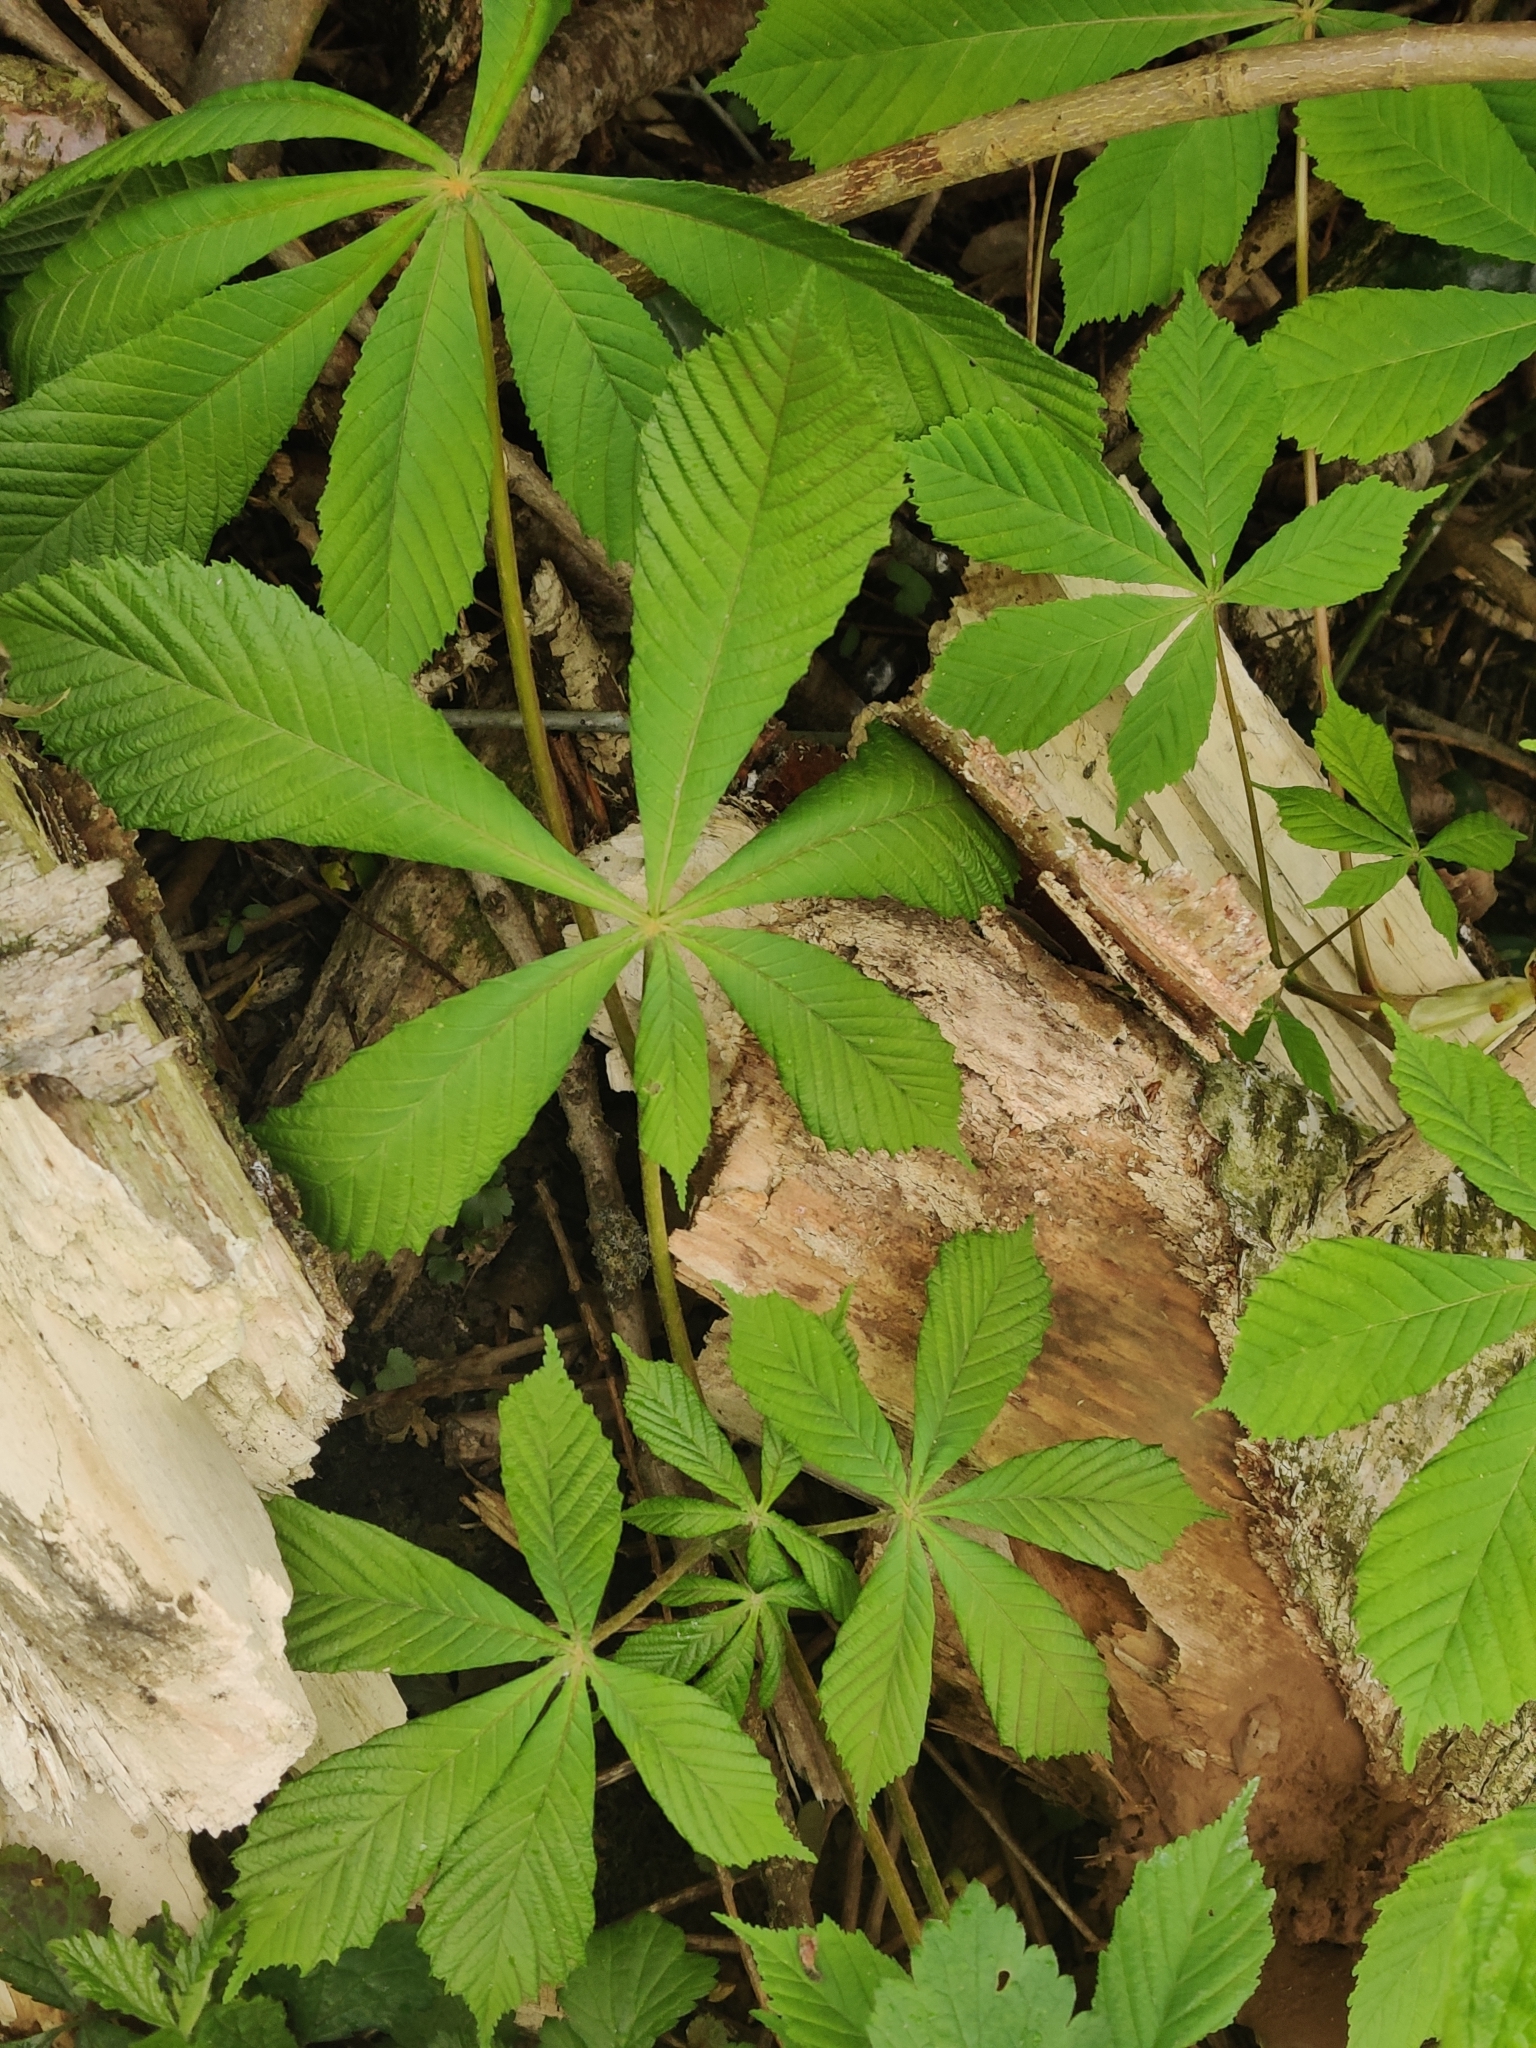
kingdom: Plantae
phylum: Tracheophyta
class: Magnoliopsida
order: Sapindales
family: Sapindaceae
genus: Aesculus
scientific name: Aesculus hippocastanum
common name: Horse-chestnut
